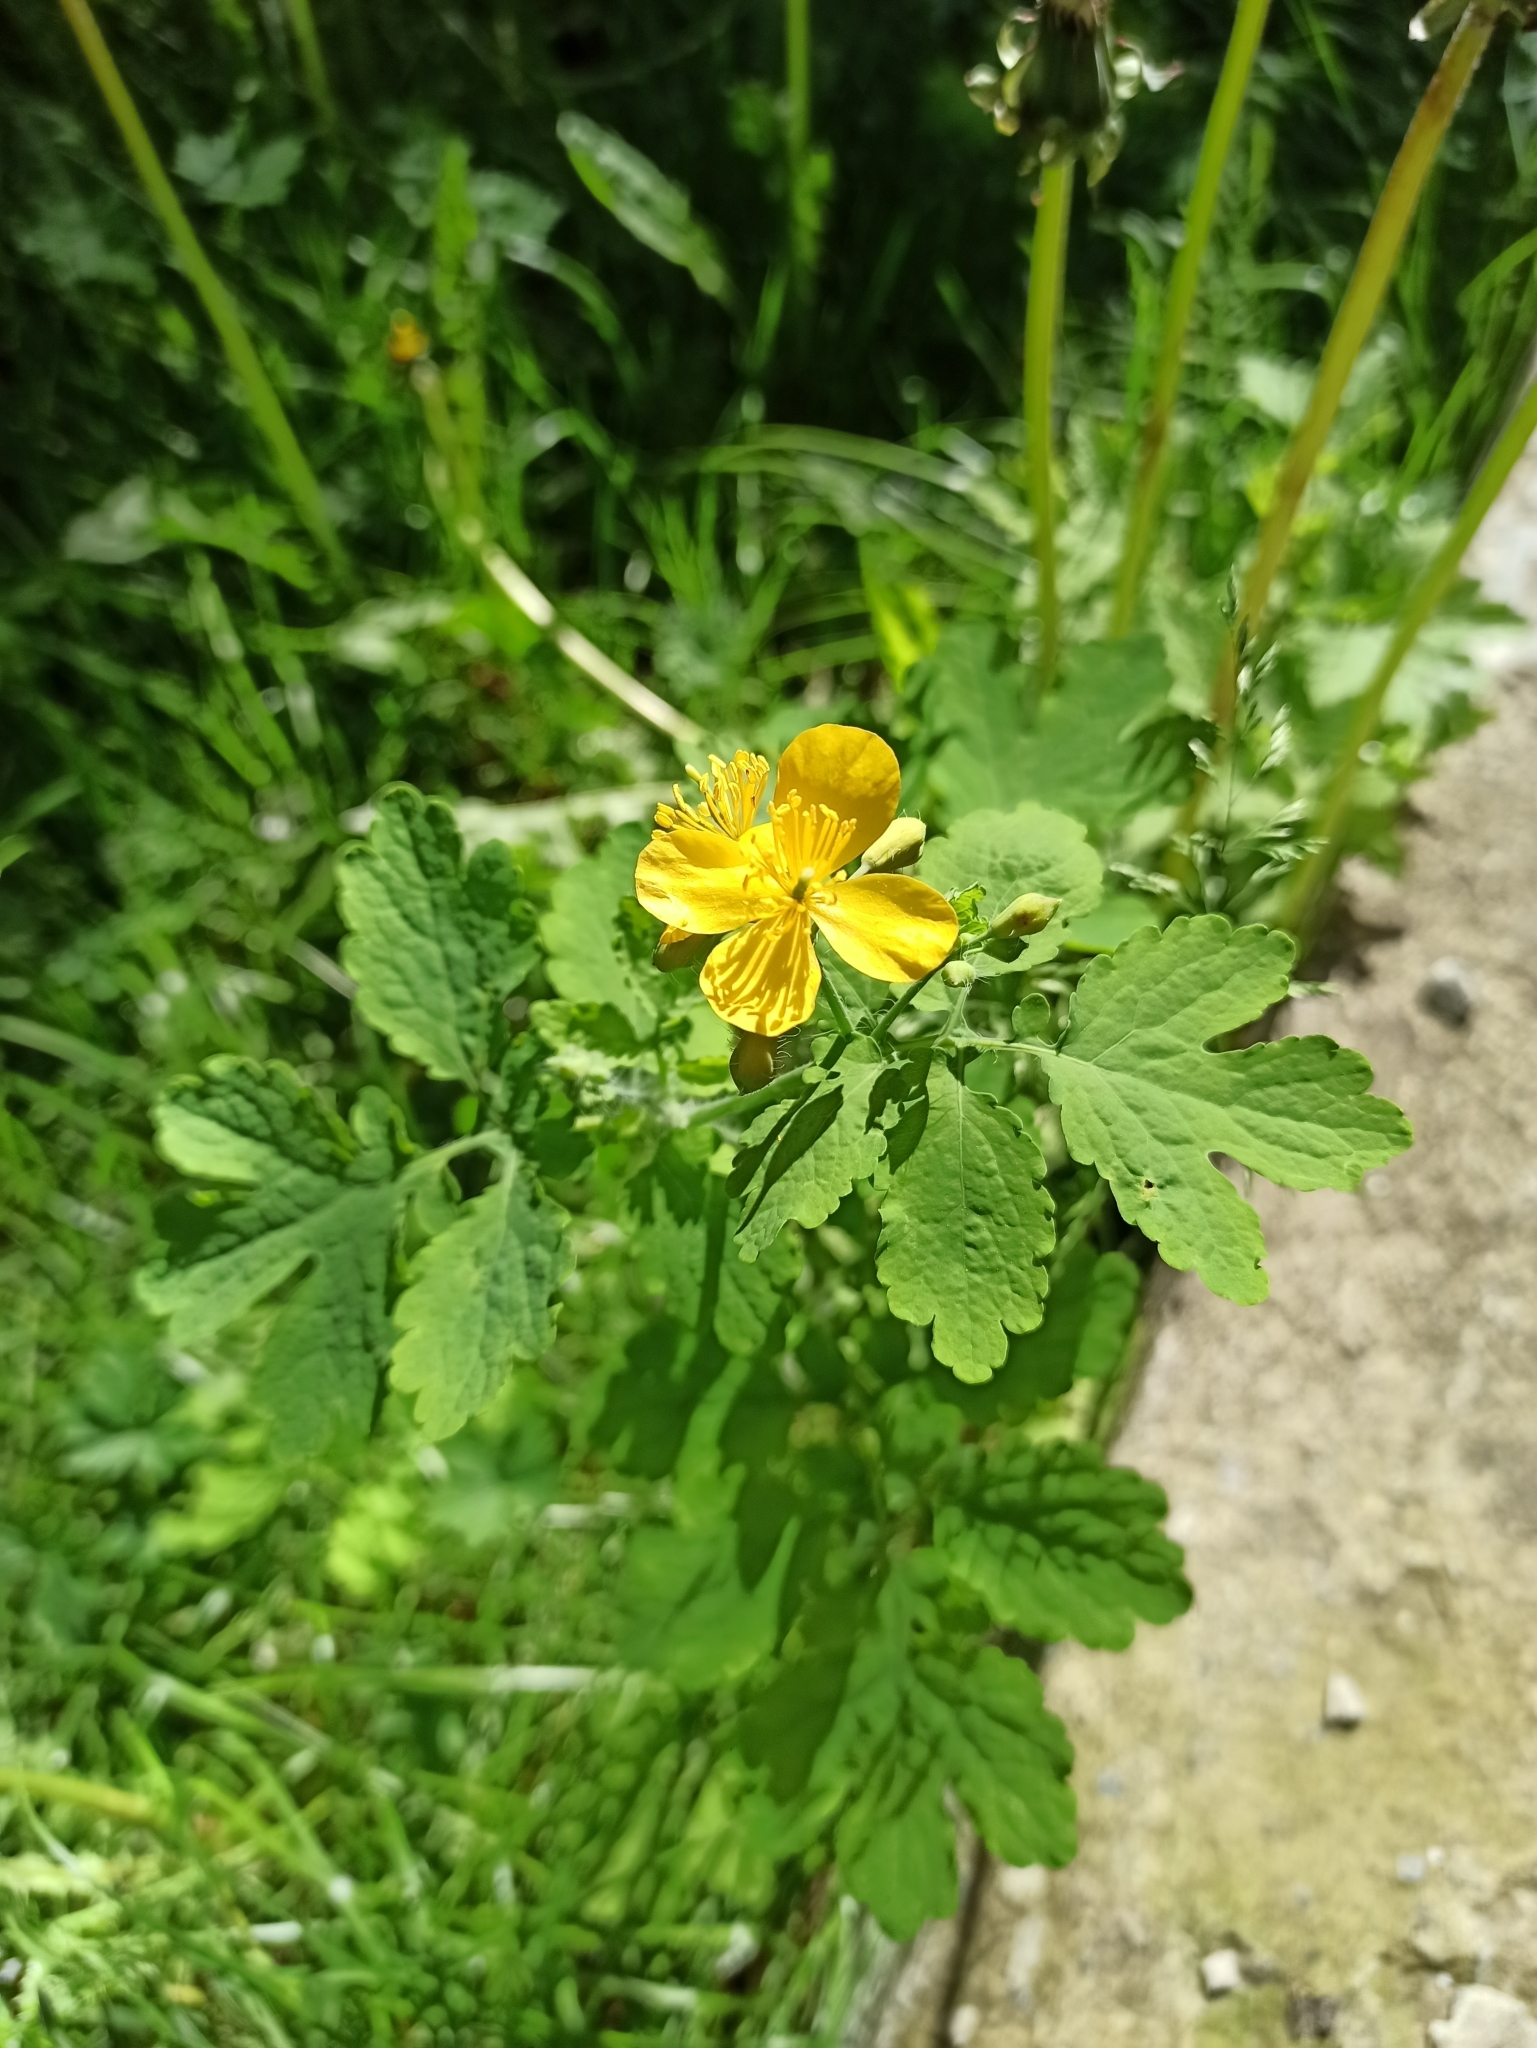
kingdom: Plantae
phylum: Tracheophyta
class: Magnoliopsida
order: Ranunculales
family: Papaveraceae
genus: Chelidonium
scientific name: Chelidonium majus
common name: Greater celandine
